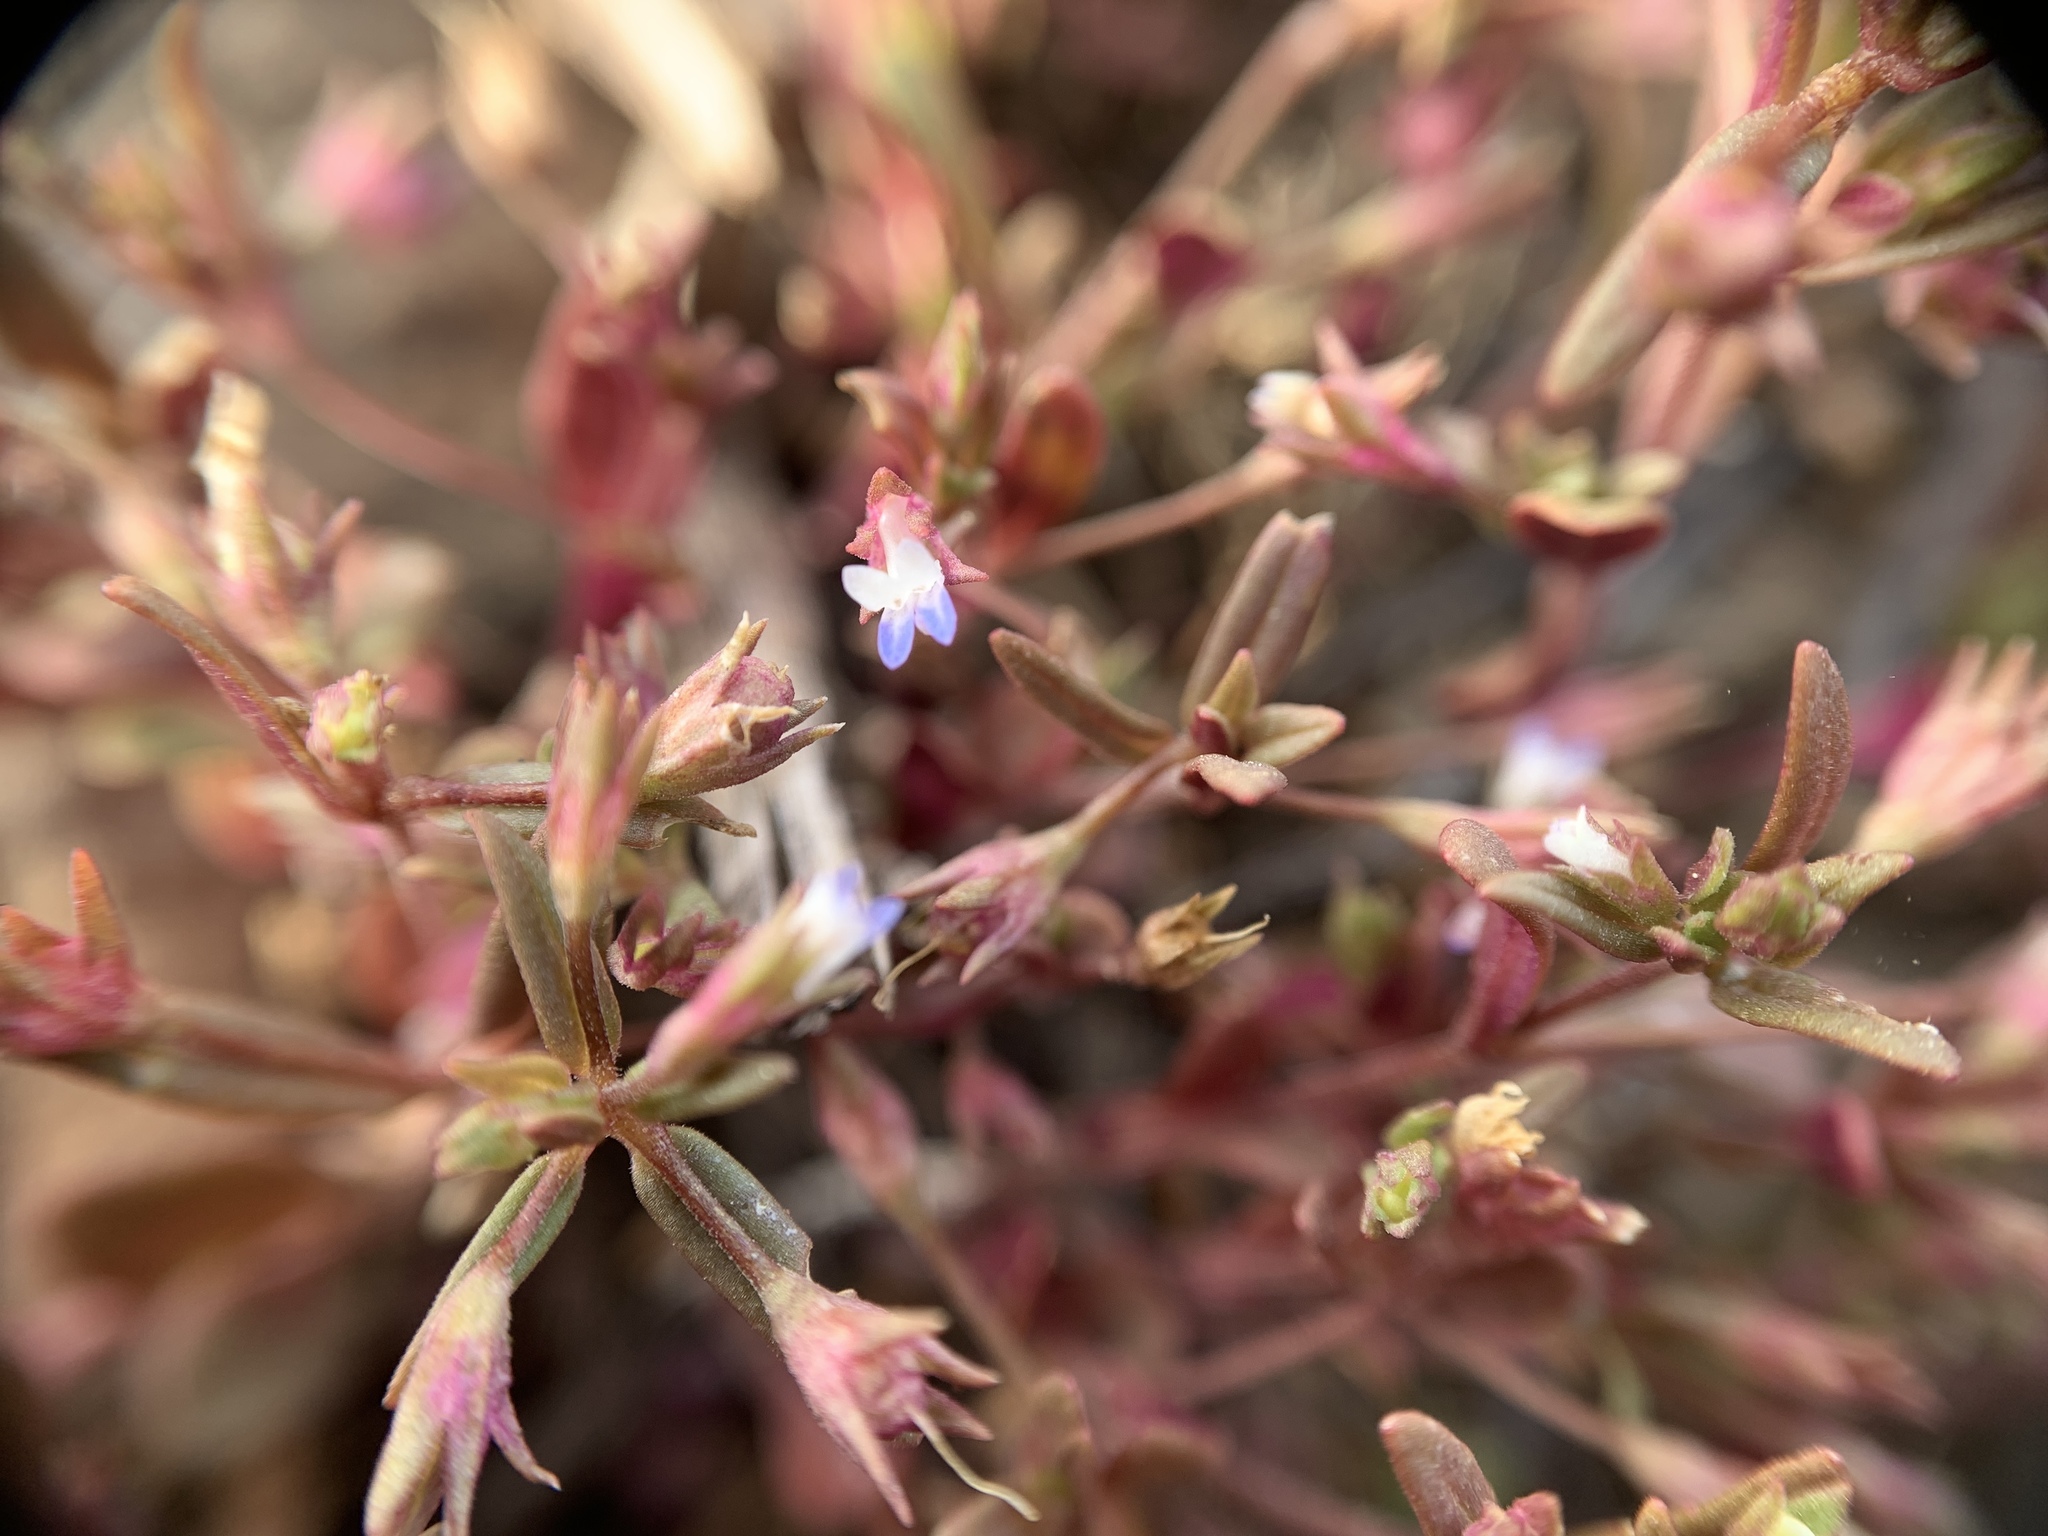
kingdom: Plantae
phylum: Tracheophyta
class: Magnoliopsida
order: Lamiales
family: Plantaginaceae
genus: Collinsia
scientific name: Collinsia parviflora
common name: Blue-lips
